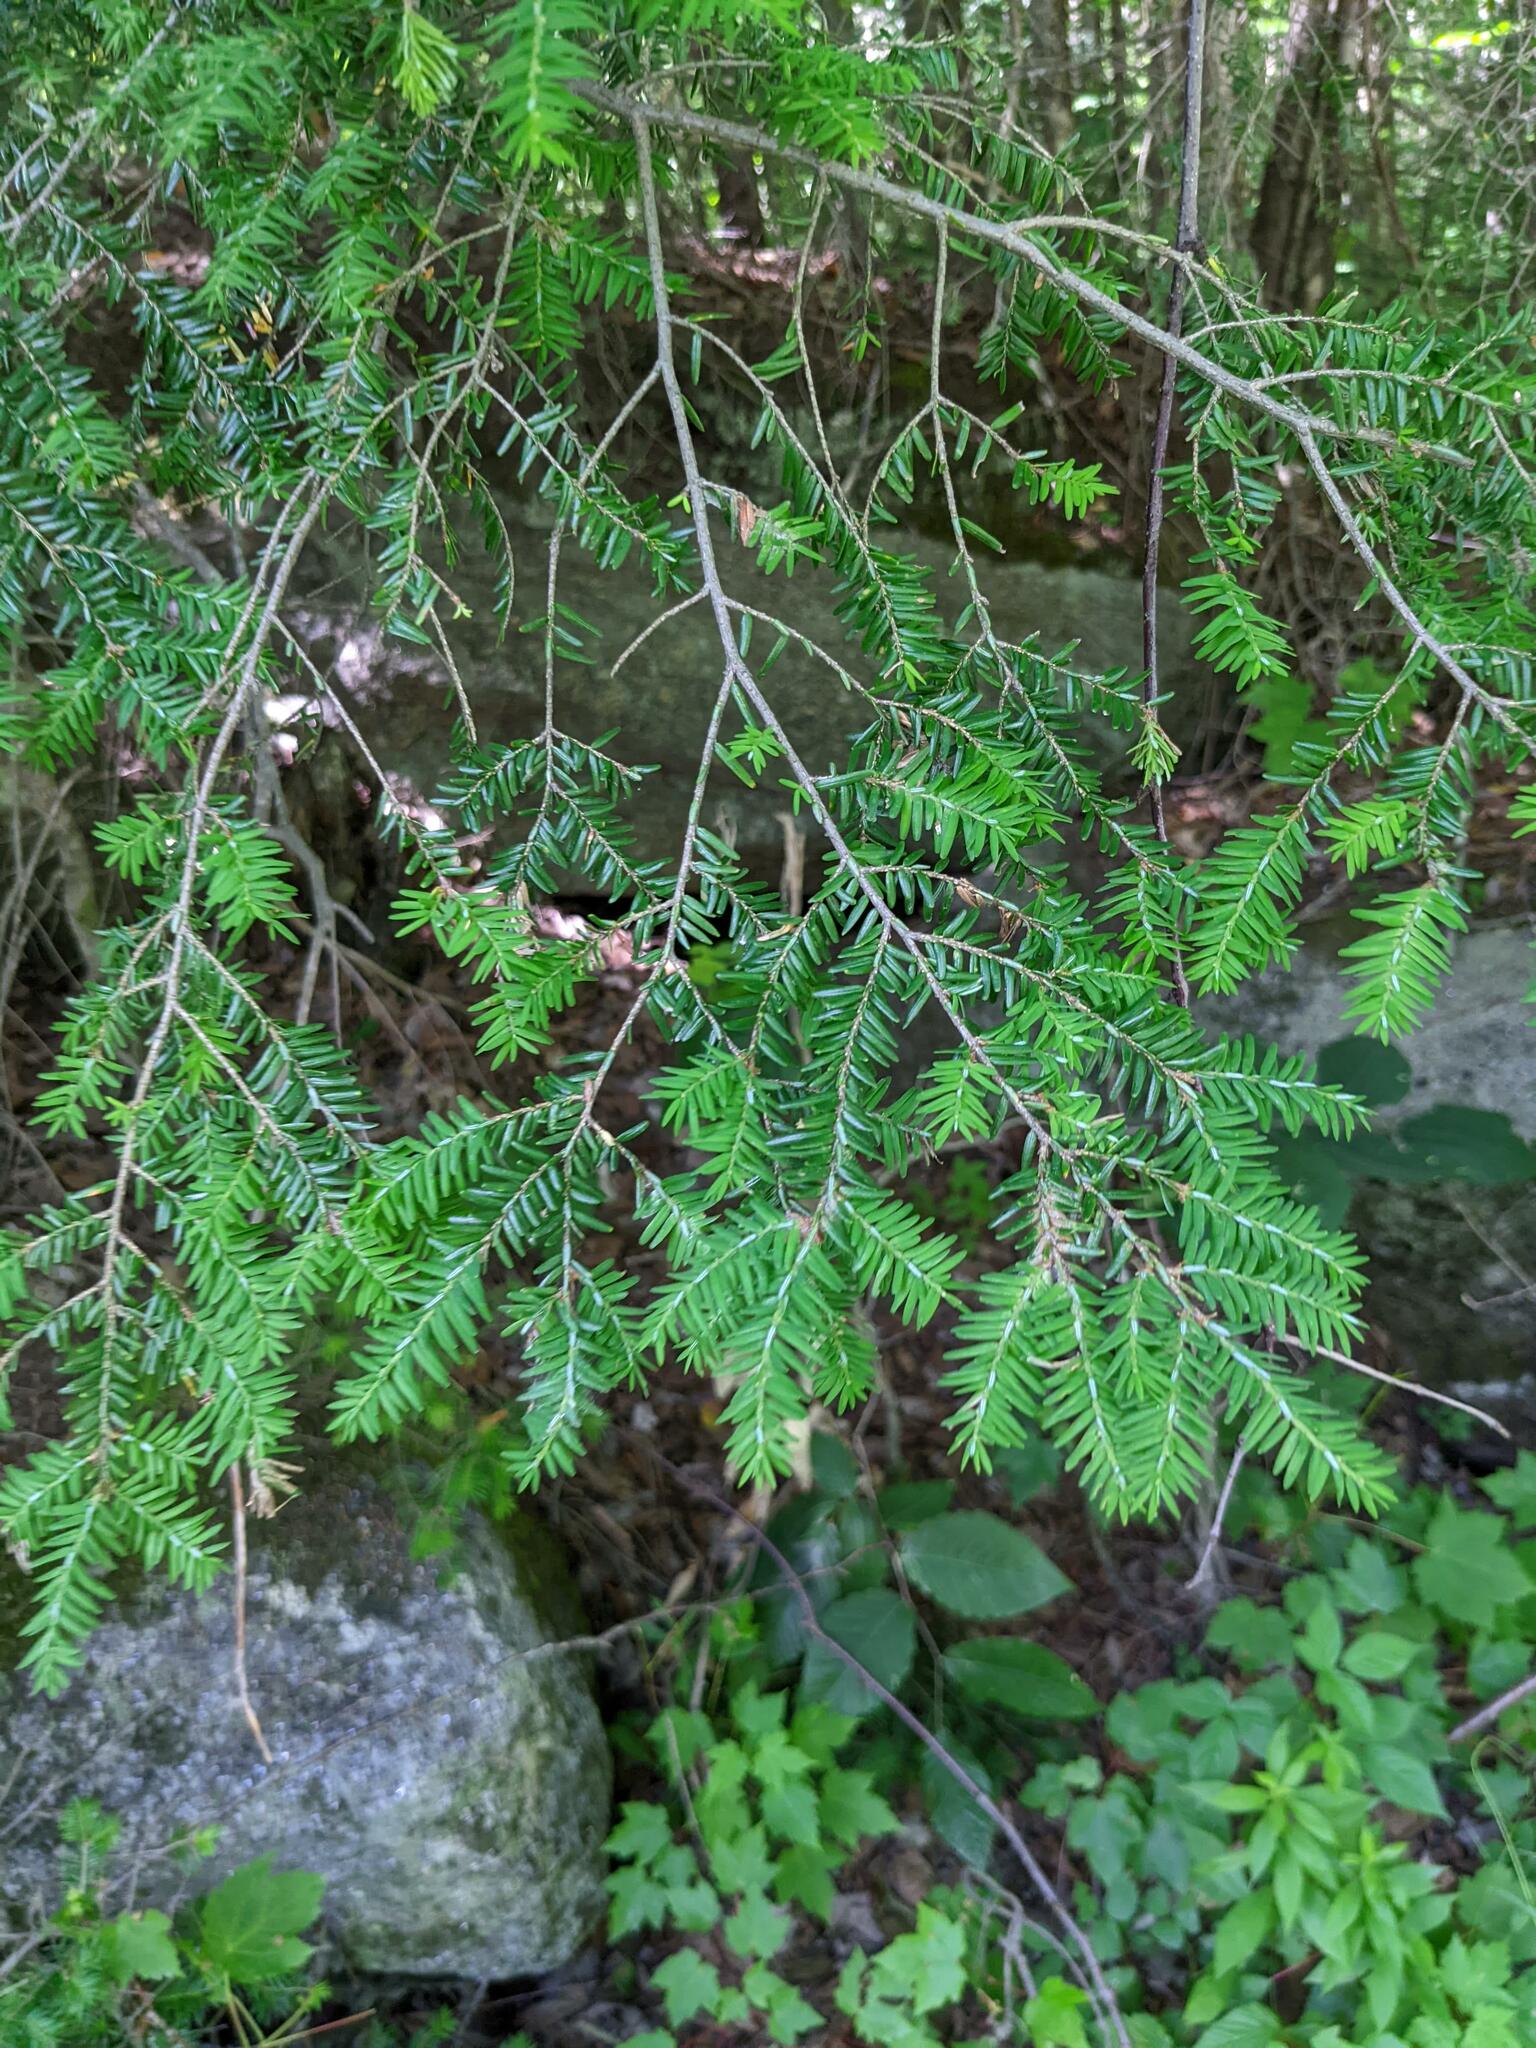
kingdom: Plantae
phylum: Tracheophyta
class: Pinopsida
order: Pinales
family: Pinaceae
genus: Tsuga
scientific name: Tsuga canadensis
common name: Eastern hemlock
